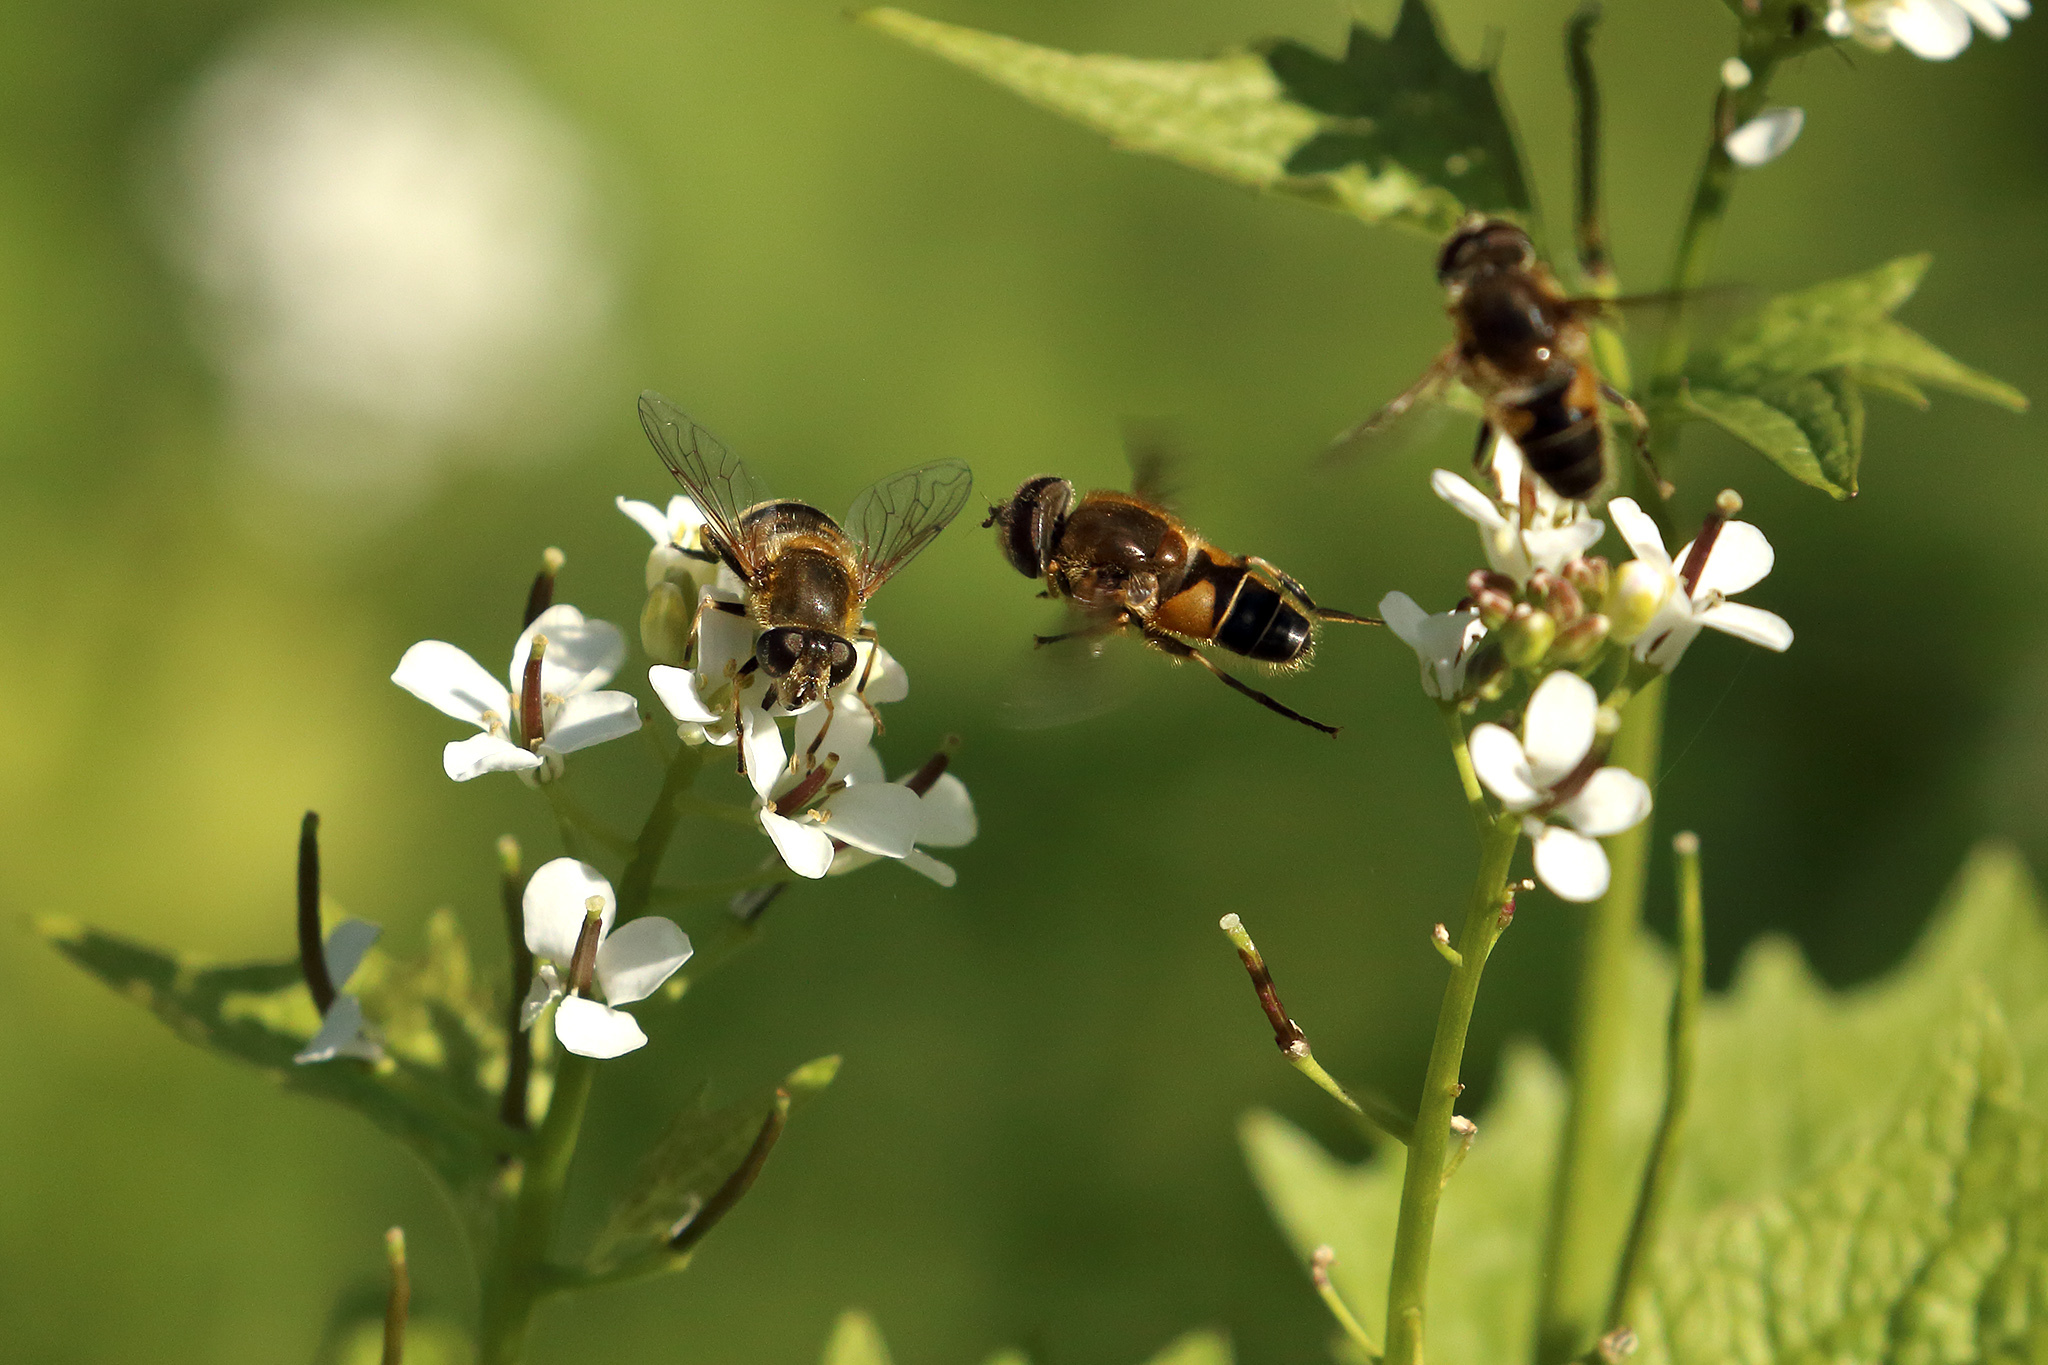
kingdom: Animalia
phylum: Arthropoda
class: Insecta
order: Diptera
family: Syrphidae
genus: Eristalis
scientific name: Eristalis nemorum
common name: Orange-spined drone fly
